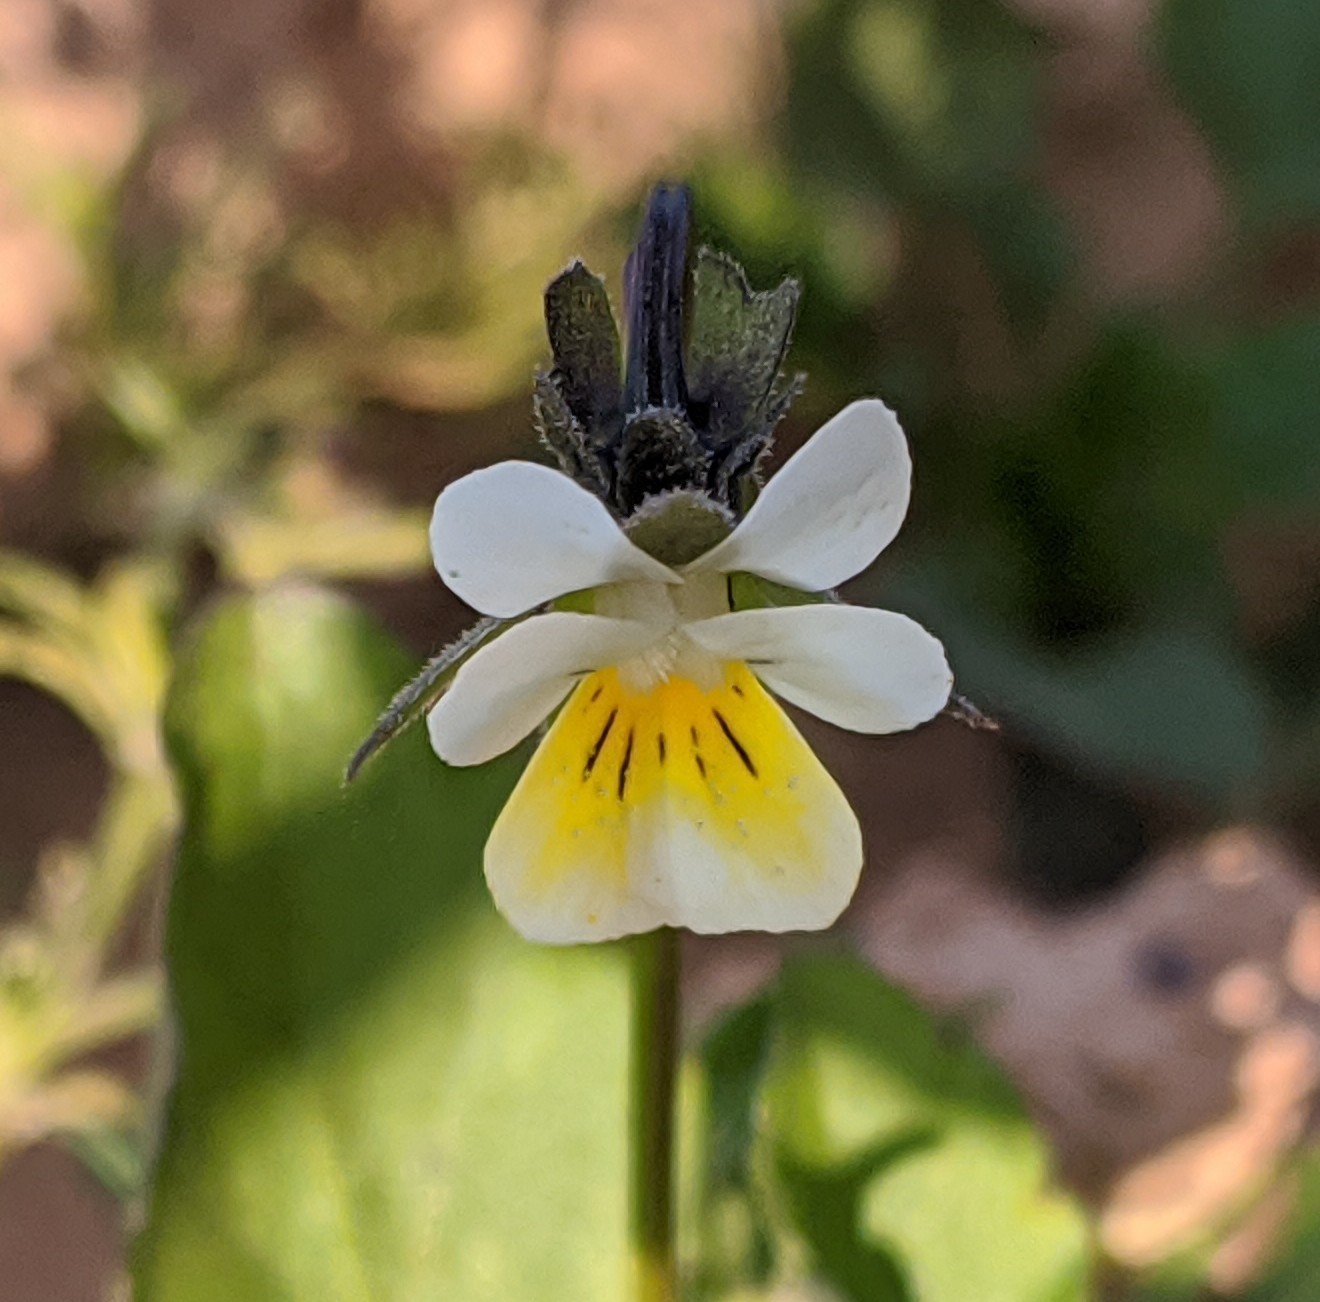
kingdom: Plantae
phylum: Tracheophyta
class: Magnoliopsida
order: Malpighiales
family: Violaceae
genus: Viola
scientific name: Viola arvensis
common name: Field pansy
